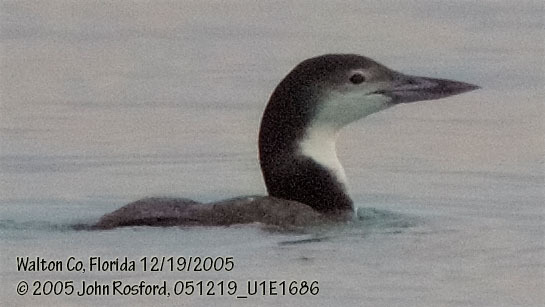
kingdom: Animalia
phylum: Chordata
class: Aves
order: Gaviiformes
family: Gaviidae
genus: Gavia
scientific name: Gavia immer
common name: Common loon
